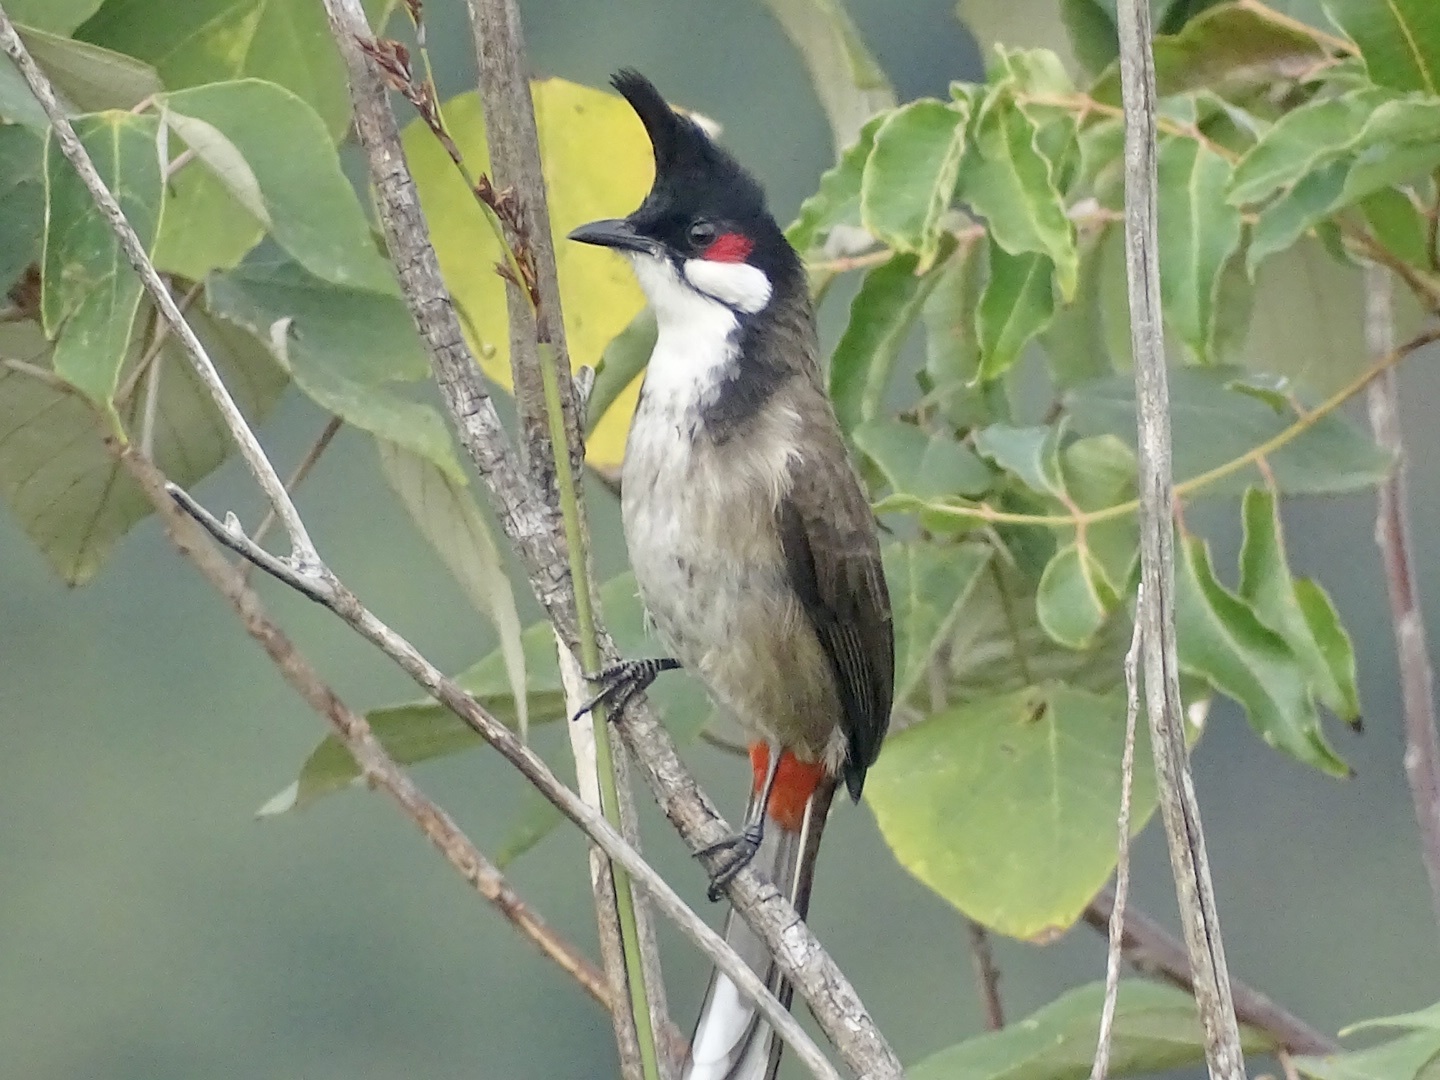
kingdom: Animalia
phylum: Chordata
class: Aves
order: Passeriformes
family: Pycnonotidae
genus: Pycnonotus
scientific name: Pycnonotus jocosus
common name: Red-whiskered bulbul
